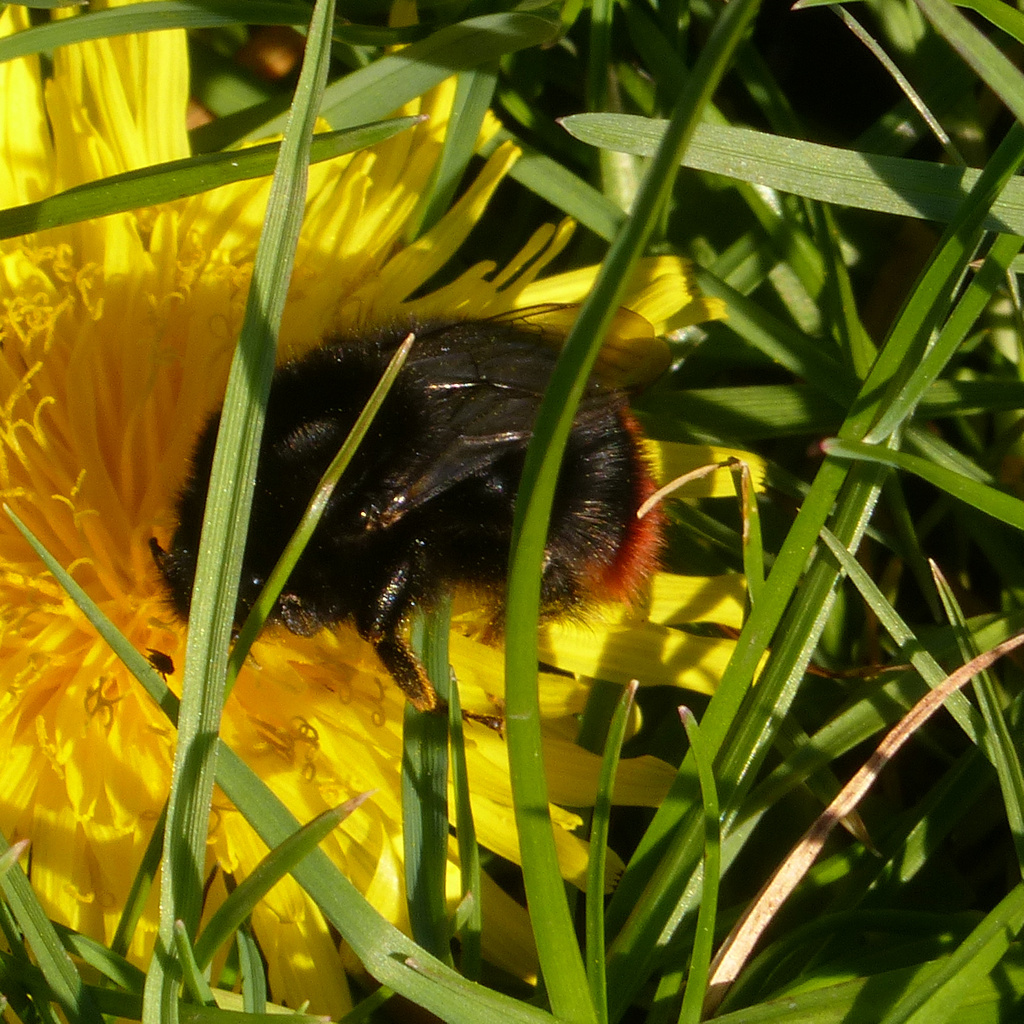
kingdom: Animalia
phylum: Arthropoda
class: Insecta
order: Hymenoptera
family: Apidae
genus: Bombus
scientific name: Bombus lapidarius
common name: Large red-tailed humble-bee
